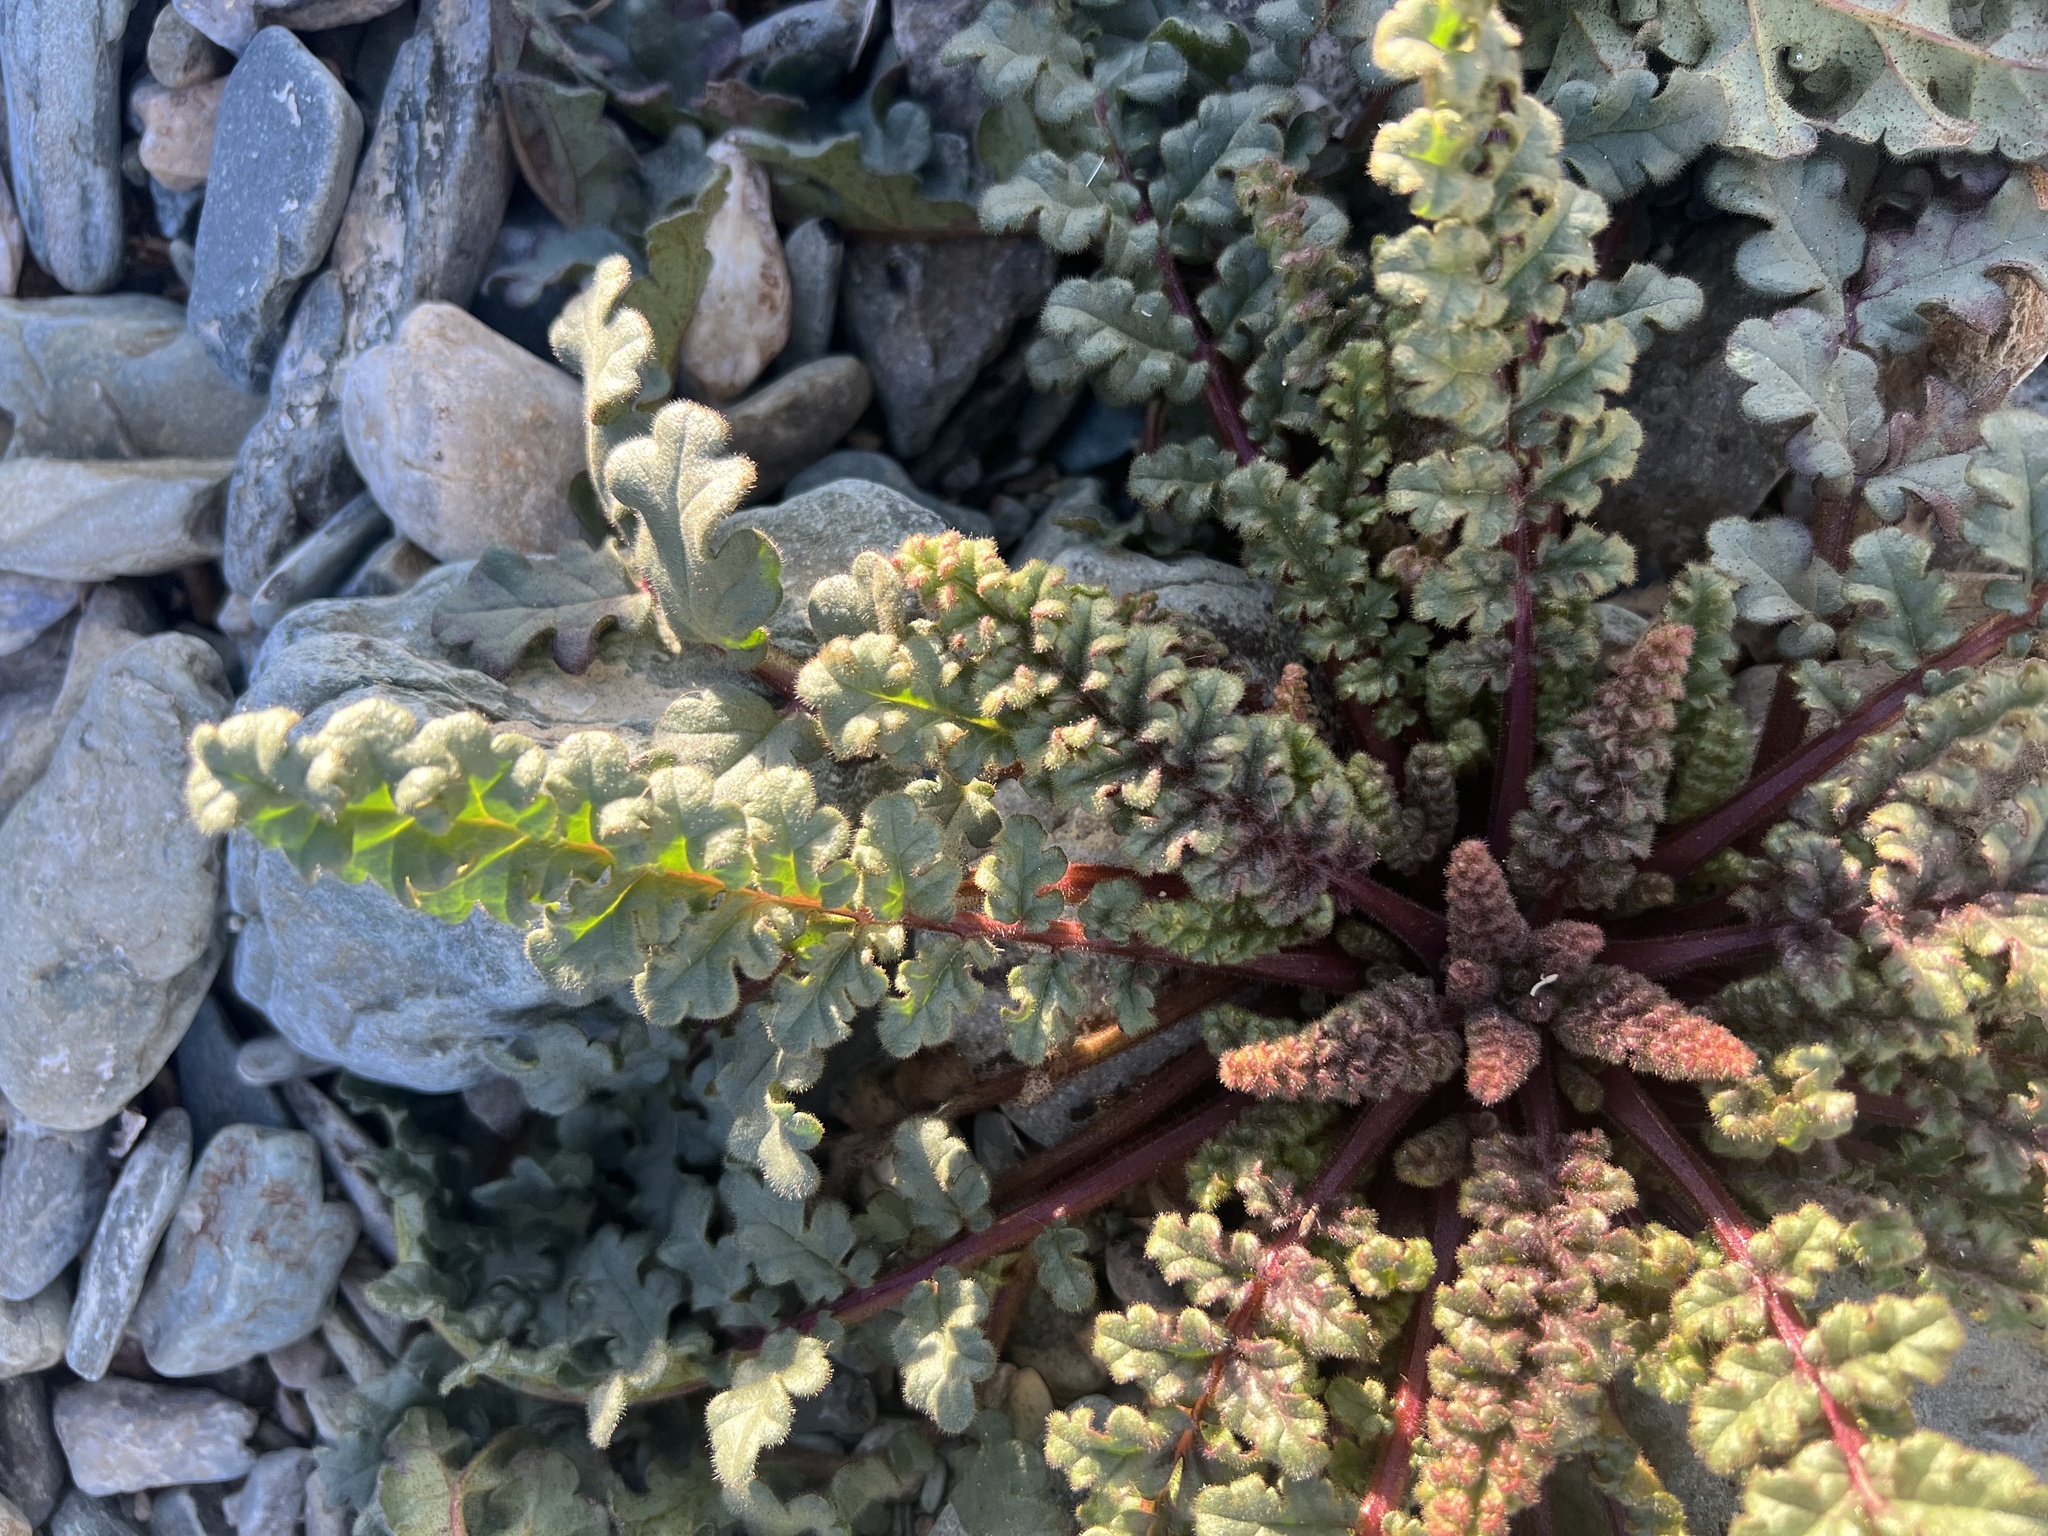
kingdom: Plantae
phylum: Tracheophyta
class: Magnoliopsida
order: Boraginales
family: Hydrophyllaceae
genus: Phacelia
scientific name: Phacelia crenulata
